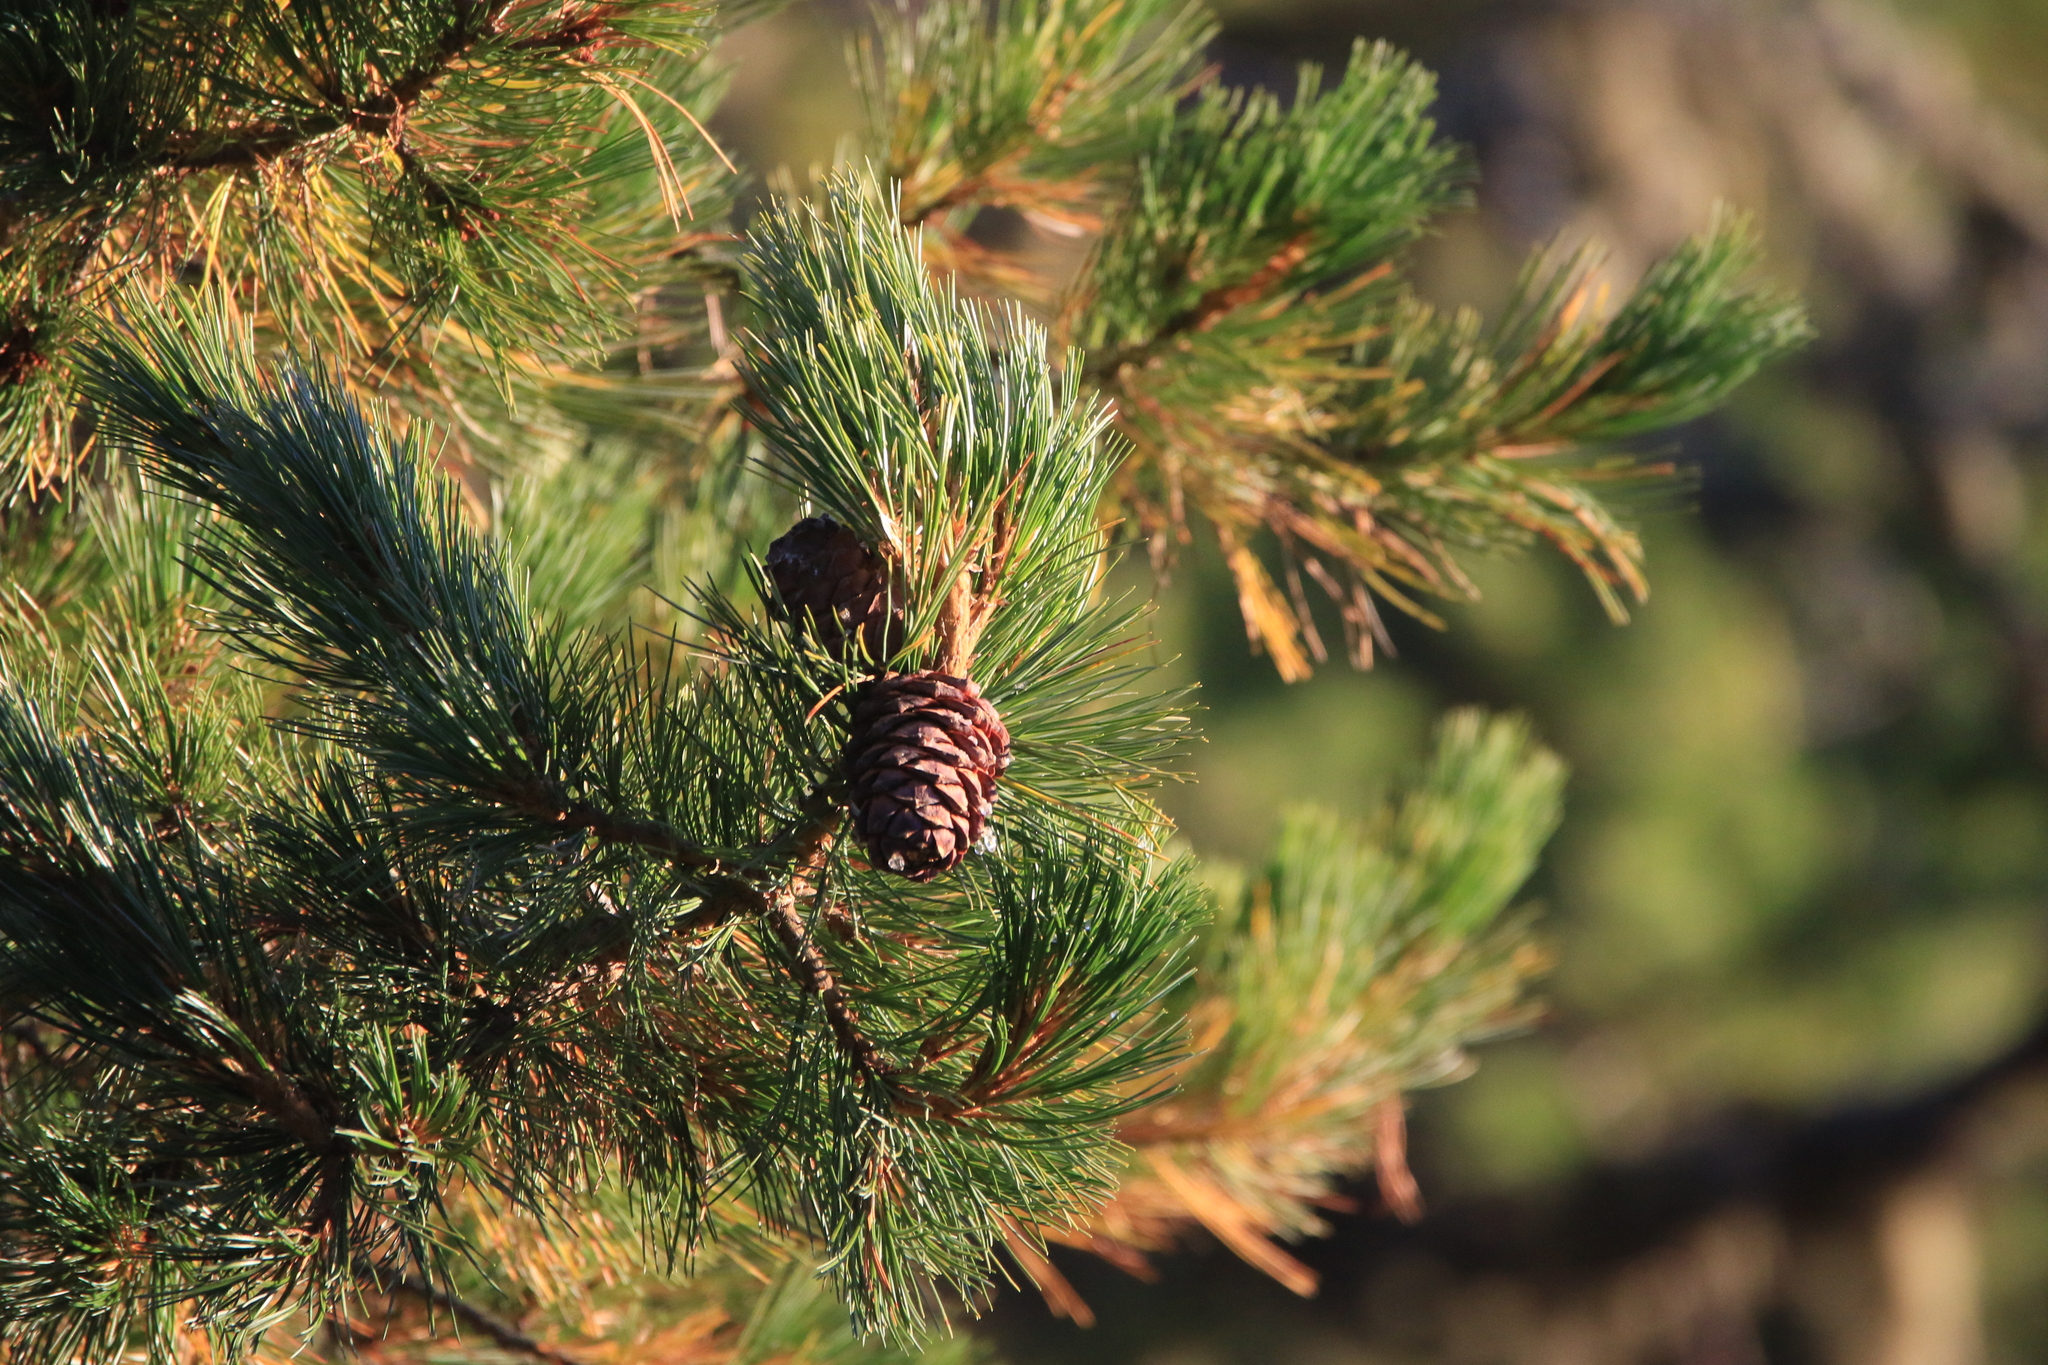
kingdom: Plantae
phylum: Tracheophyta
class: Pinopsida
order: Pinales
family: Pinaceae
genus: Pinus
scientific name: Pinus sibirica
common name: Siberian pine
